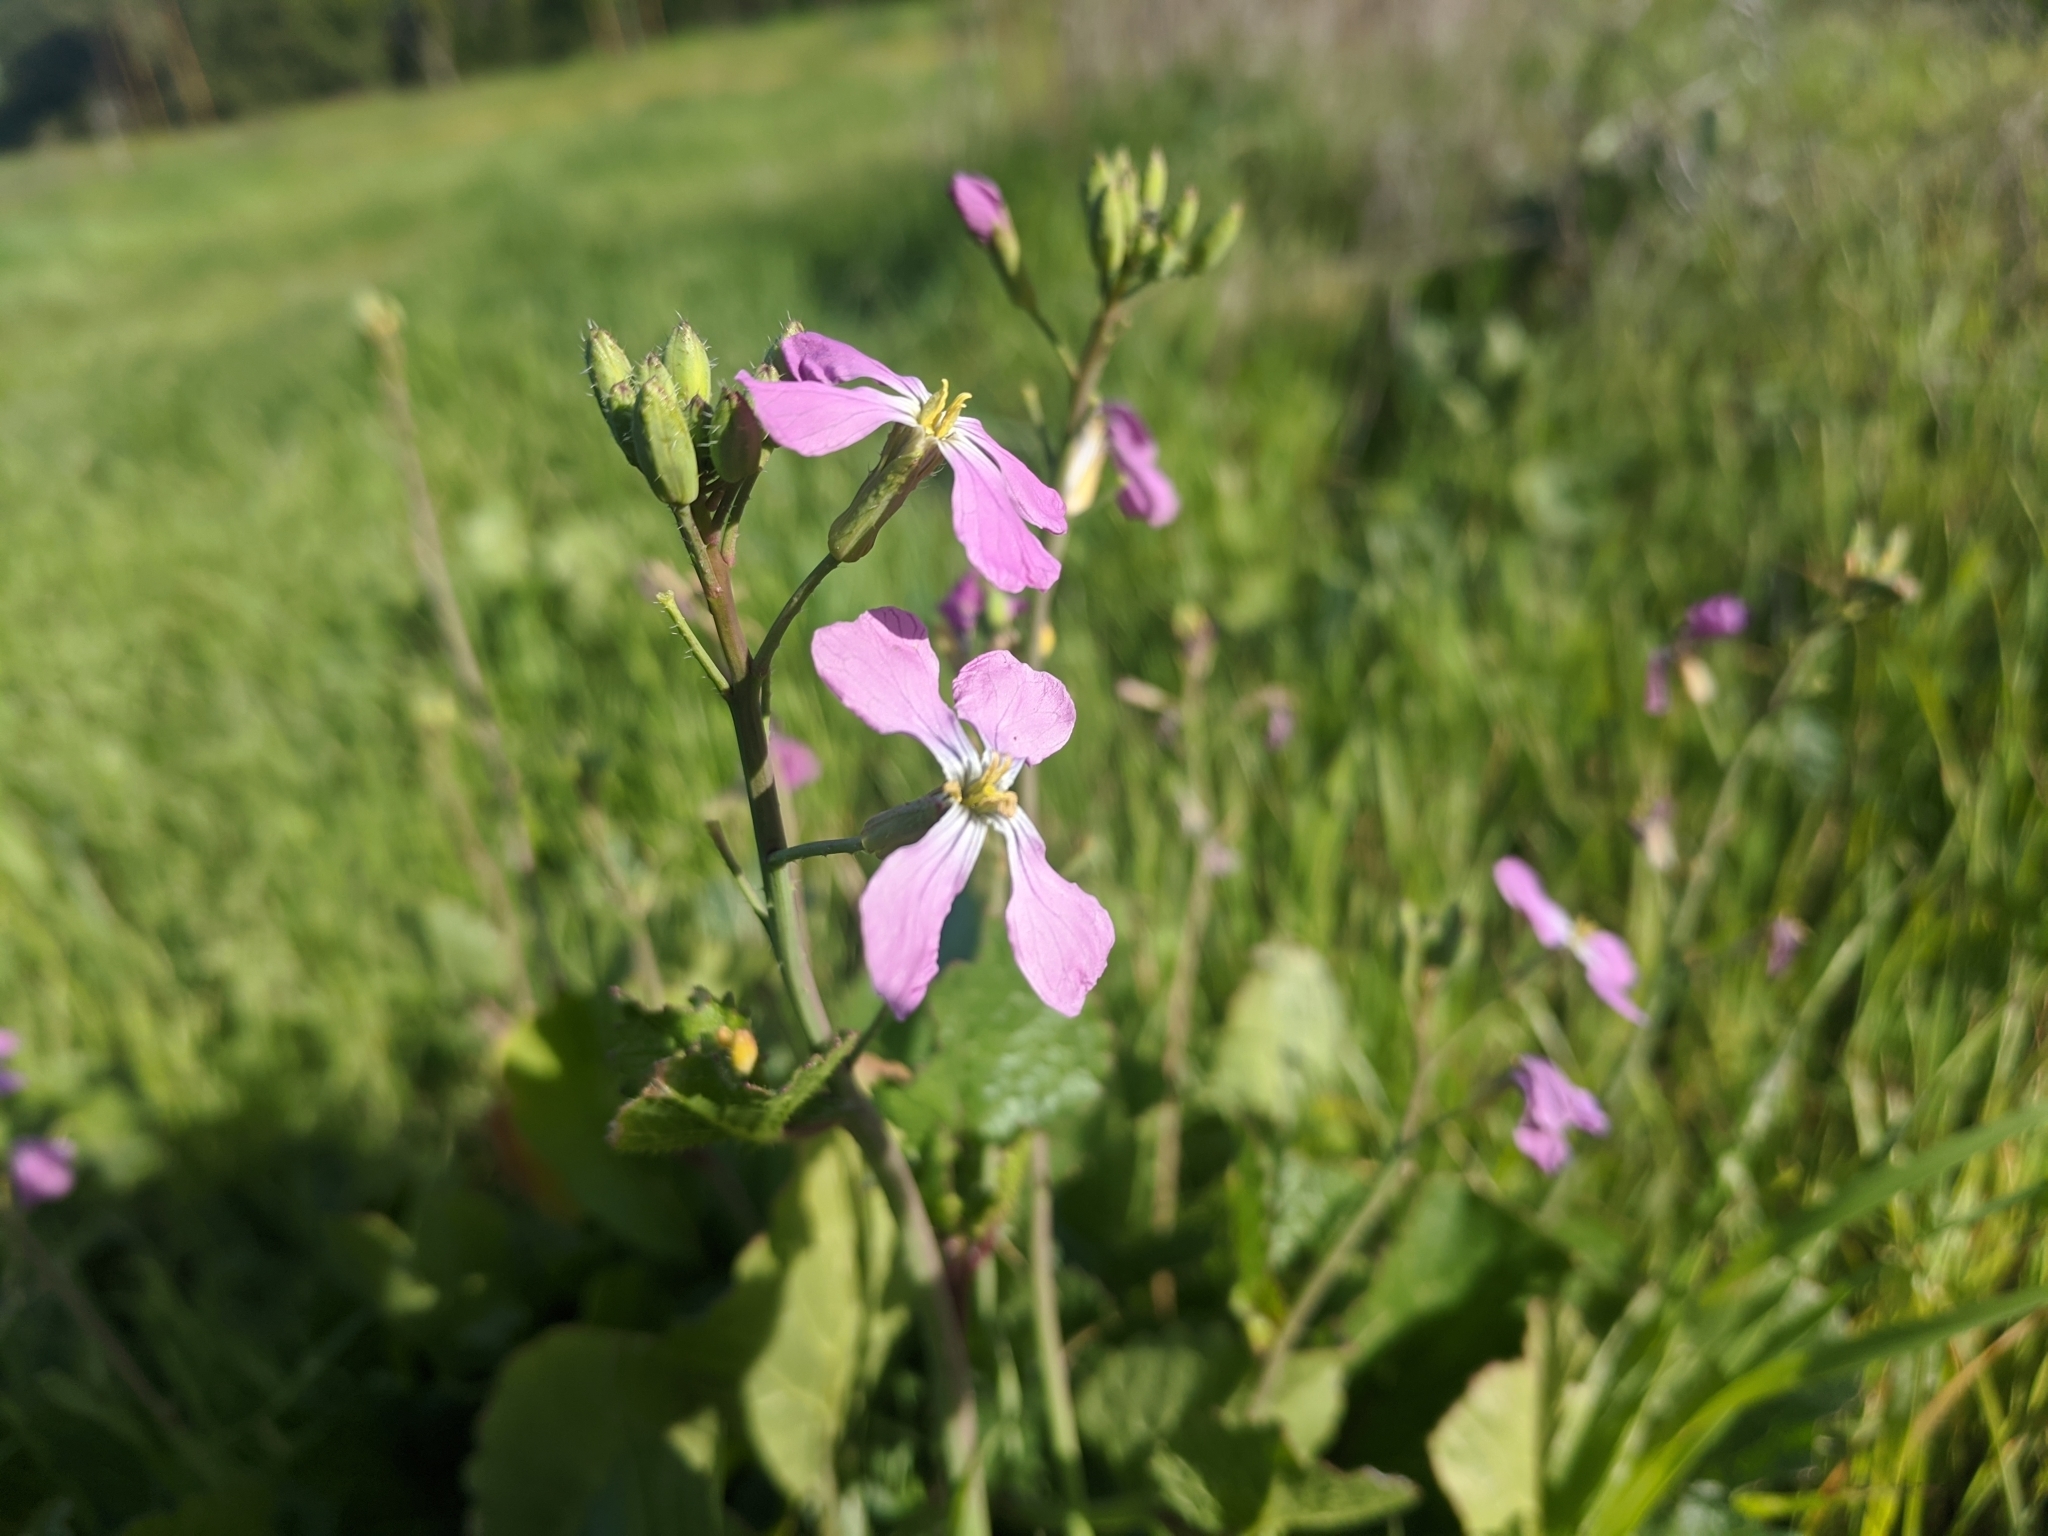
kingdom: Plantae
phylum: Tracheophyta
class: Magnoliopsida
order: Brassicales
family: Brassicaceae
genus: Raphanus
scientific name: Raphanus sativus
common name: Cultivated radish
